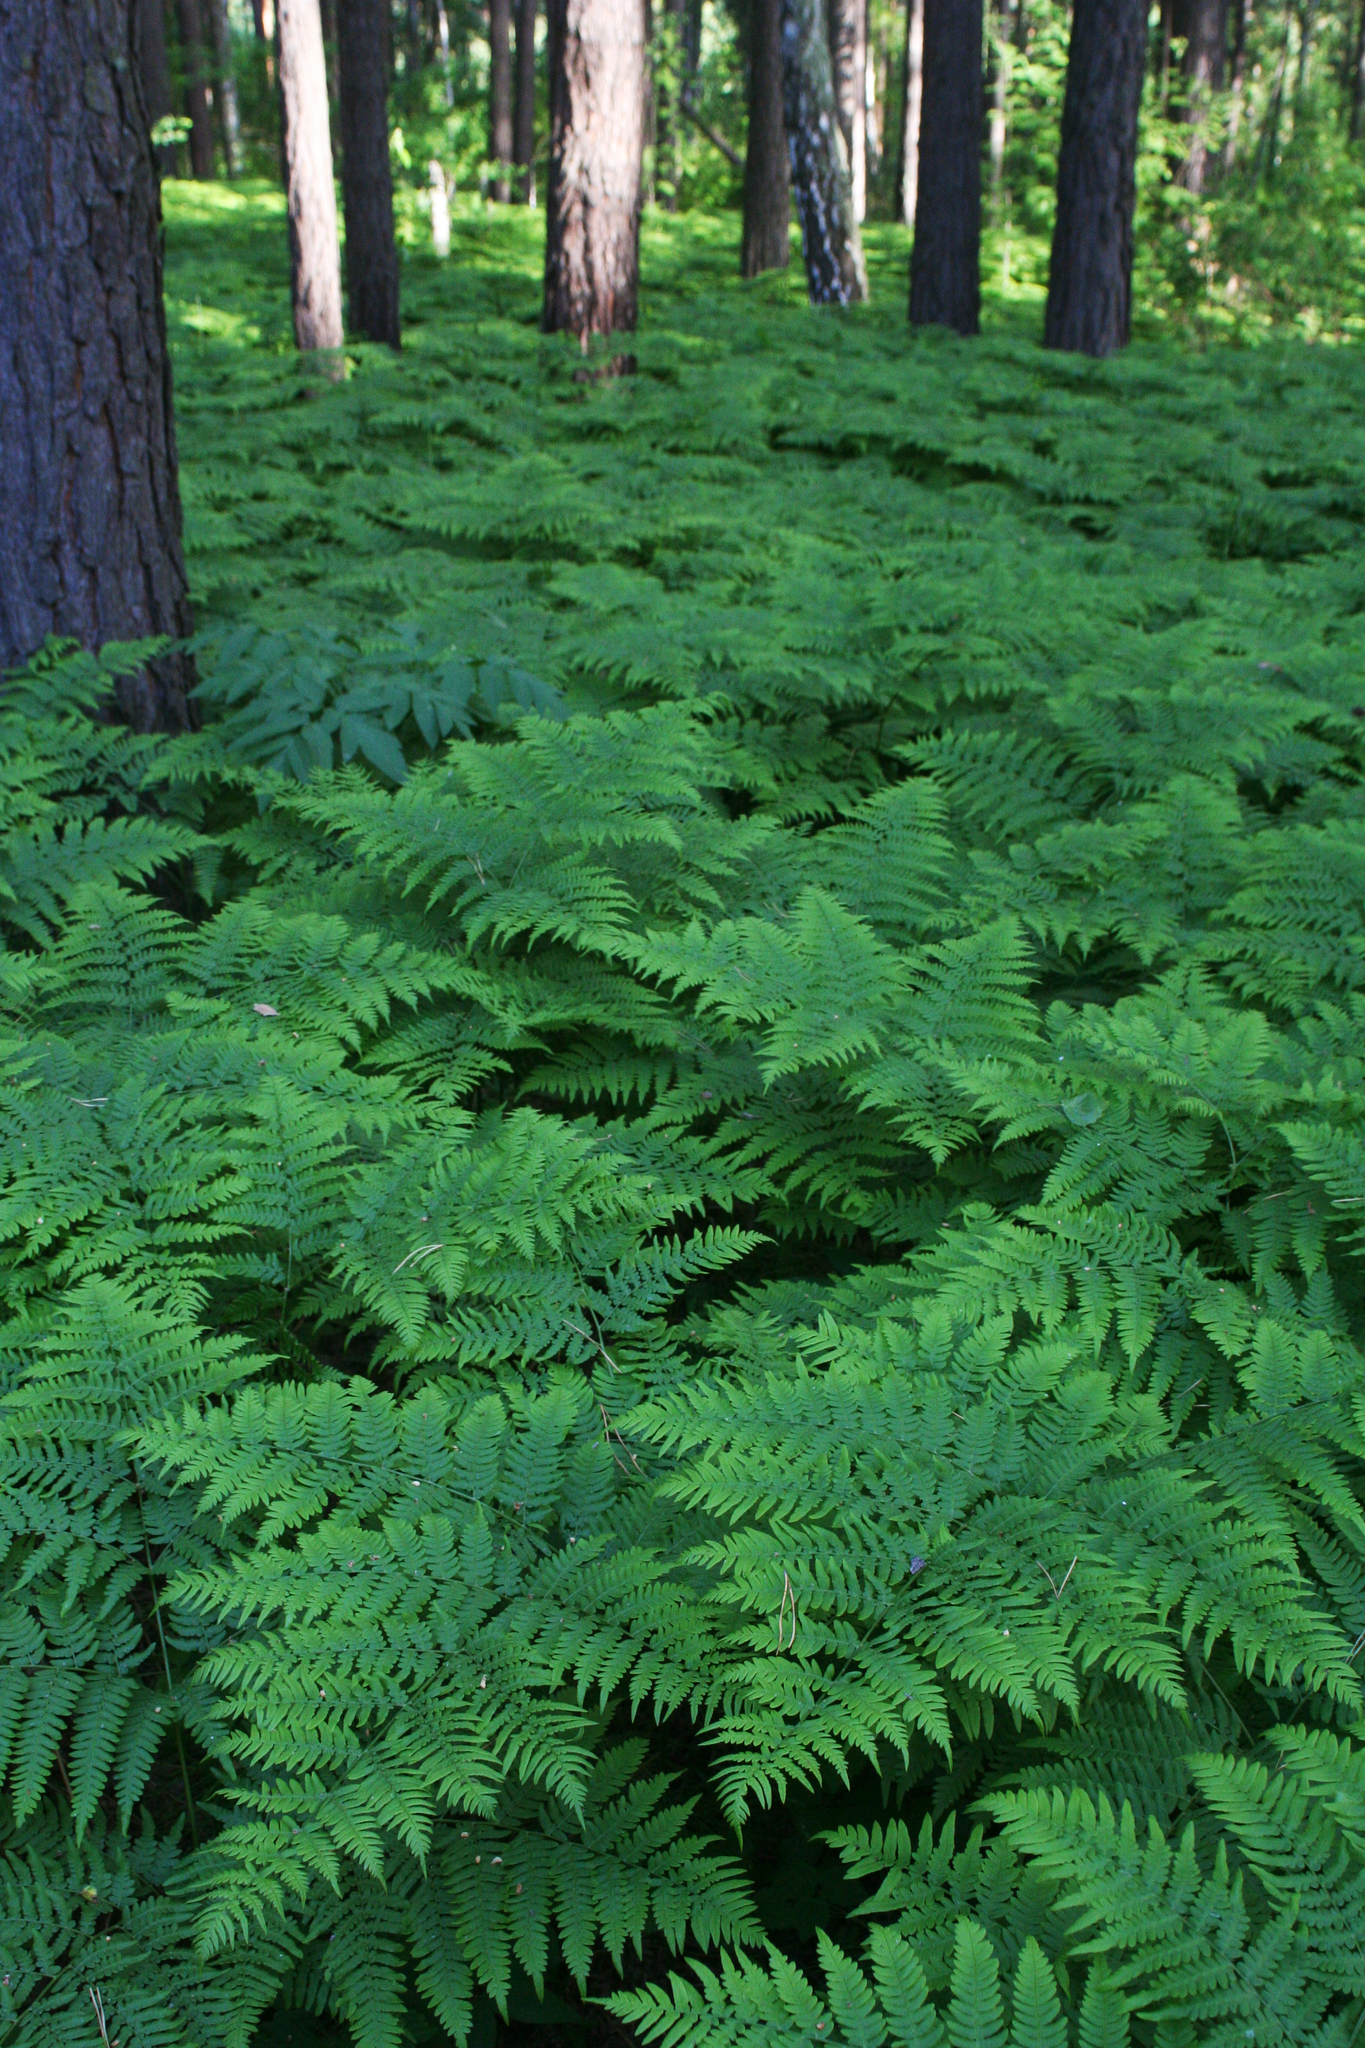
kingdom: Plantae
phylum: Tracheophyta
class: Polypodiopsida
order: Polypodiales
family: Dennstaedtiaceae
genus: Pteridium
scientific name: Pteridium aquilinum
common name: Bracken
